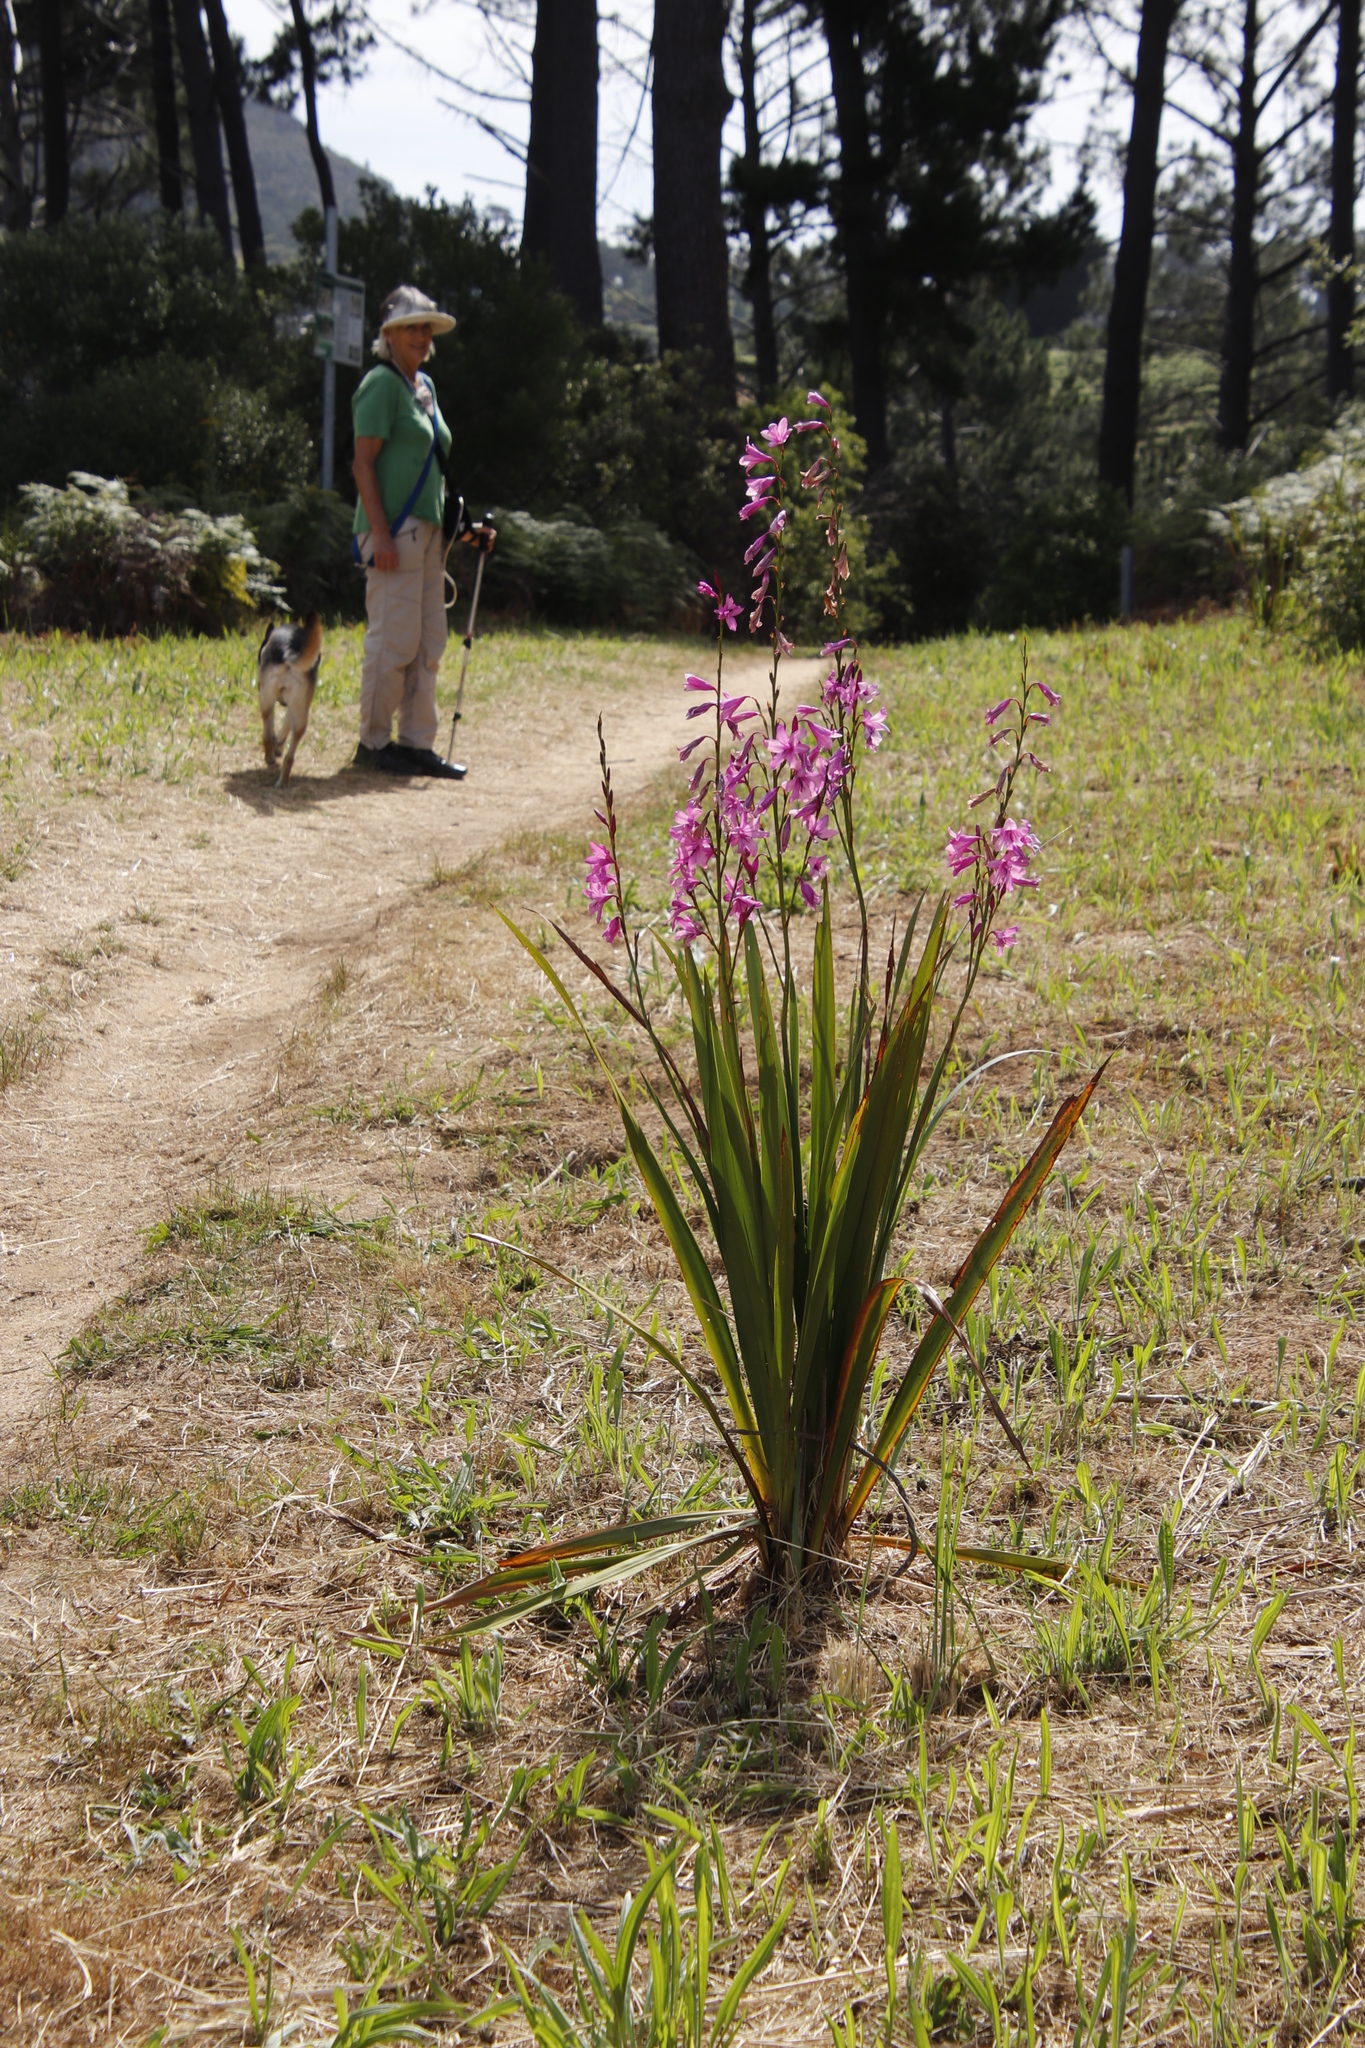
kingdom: Plantae
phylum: Tracheophyta
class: Liliopsida
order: Asparagales
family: Iridaceae
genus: Watsonia
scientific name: Watsonia borbonica
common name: Bugle-lily
